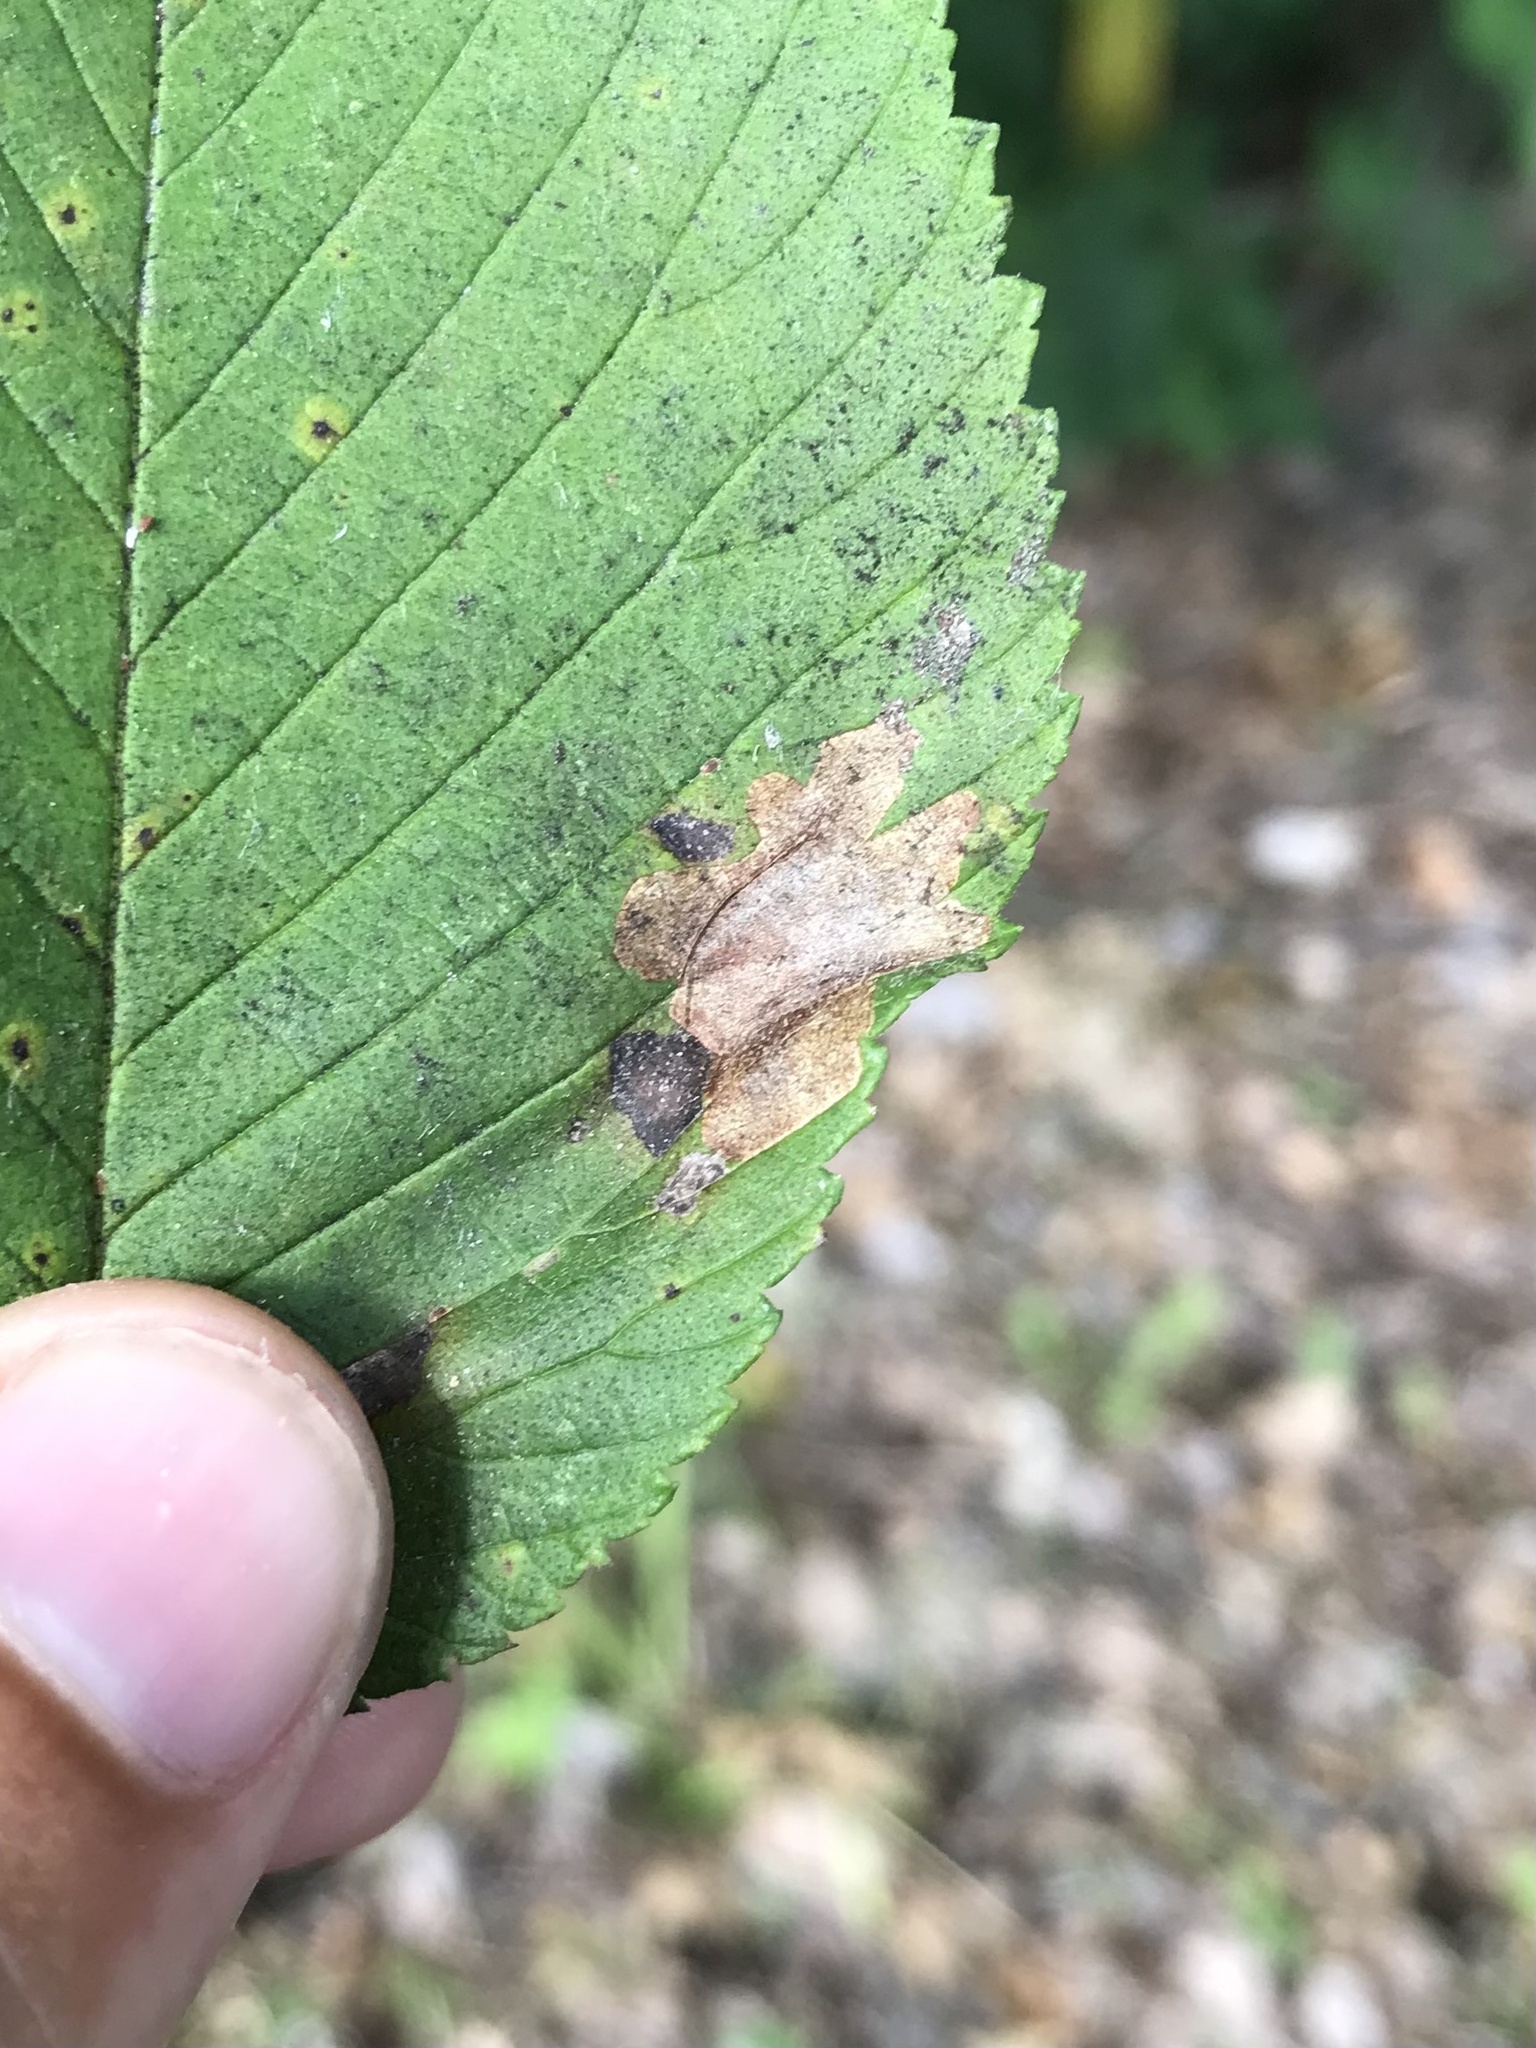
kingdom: Animalia
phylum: Arthropoda
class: Insecta
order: Lepidoptera
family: Gracillariidae
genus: Cameraria
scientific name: Cameraria ulmella
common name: Elm leafminer
